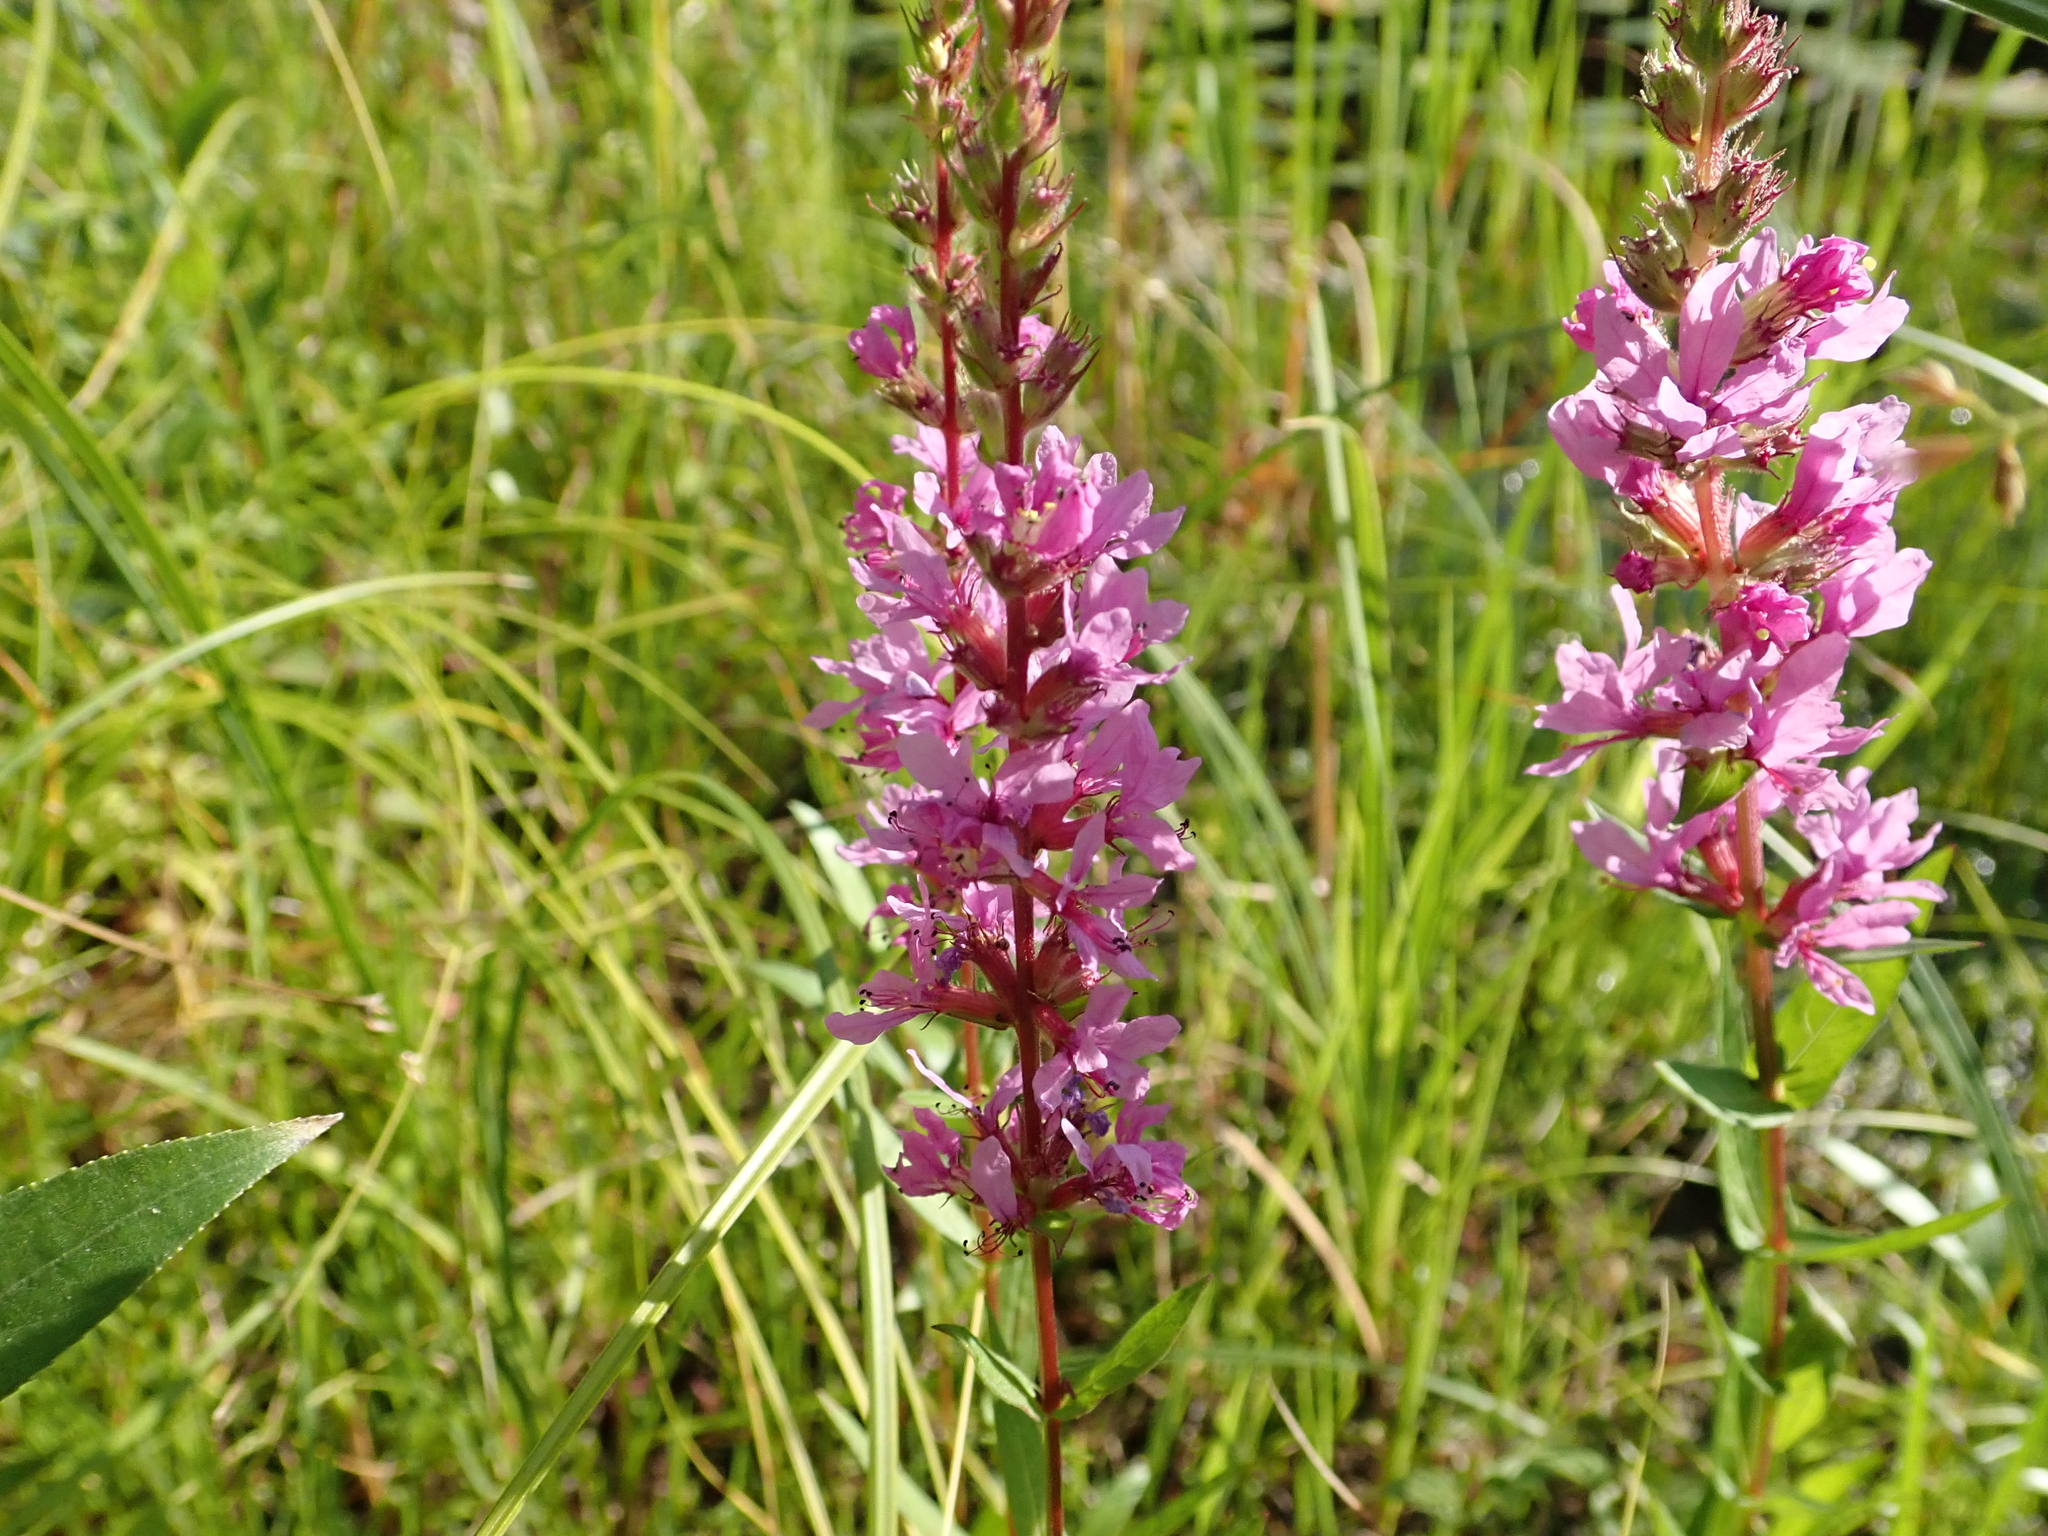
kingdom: Plantae
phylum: Tracheophyta
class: Magnoliopsida
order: Myrtales
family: Lythraceae
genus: Lythrum
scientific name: Lythrum salicaria
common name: Purple loosestrife
